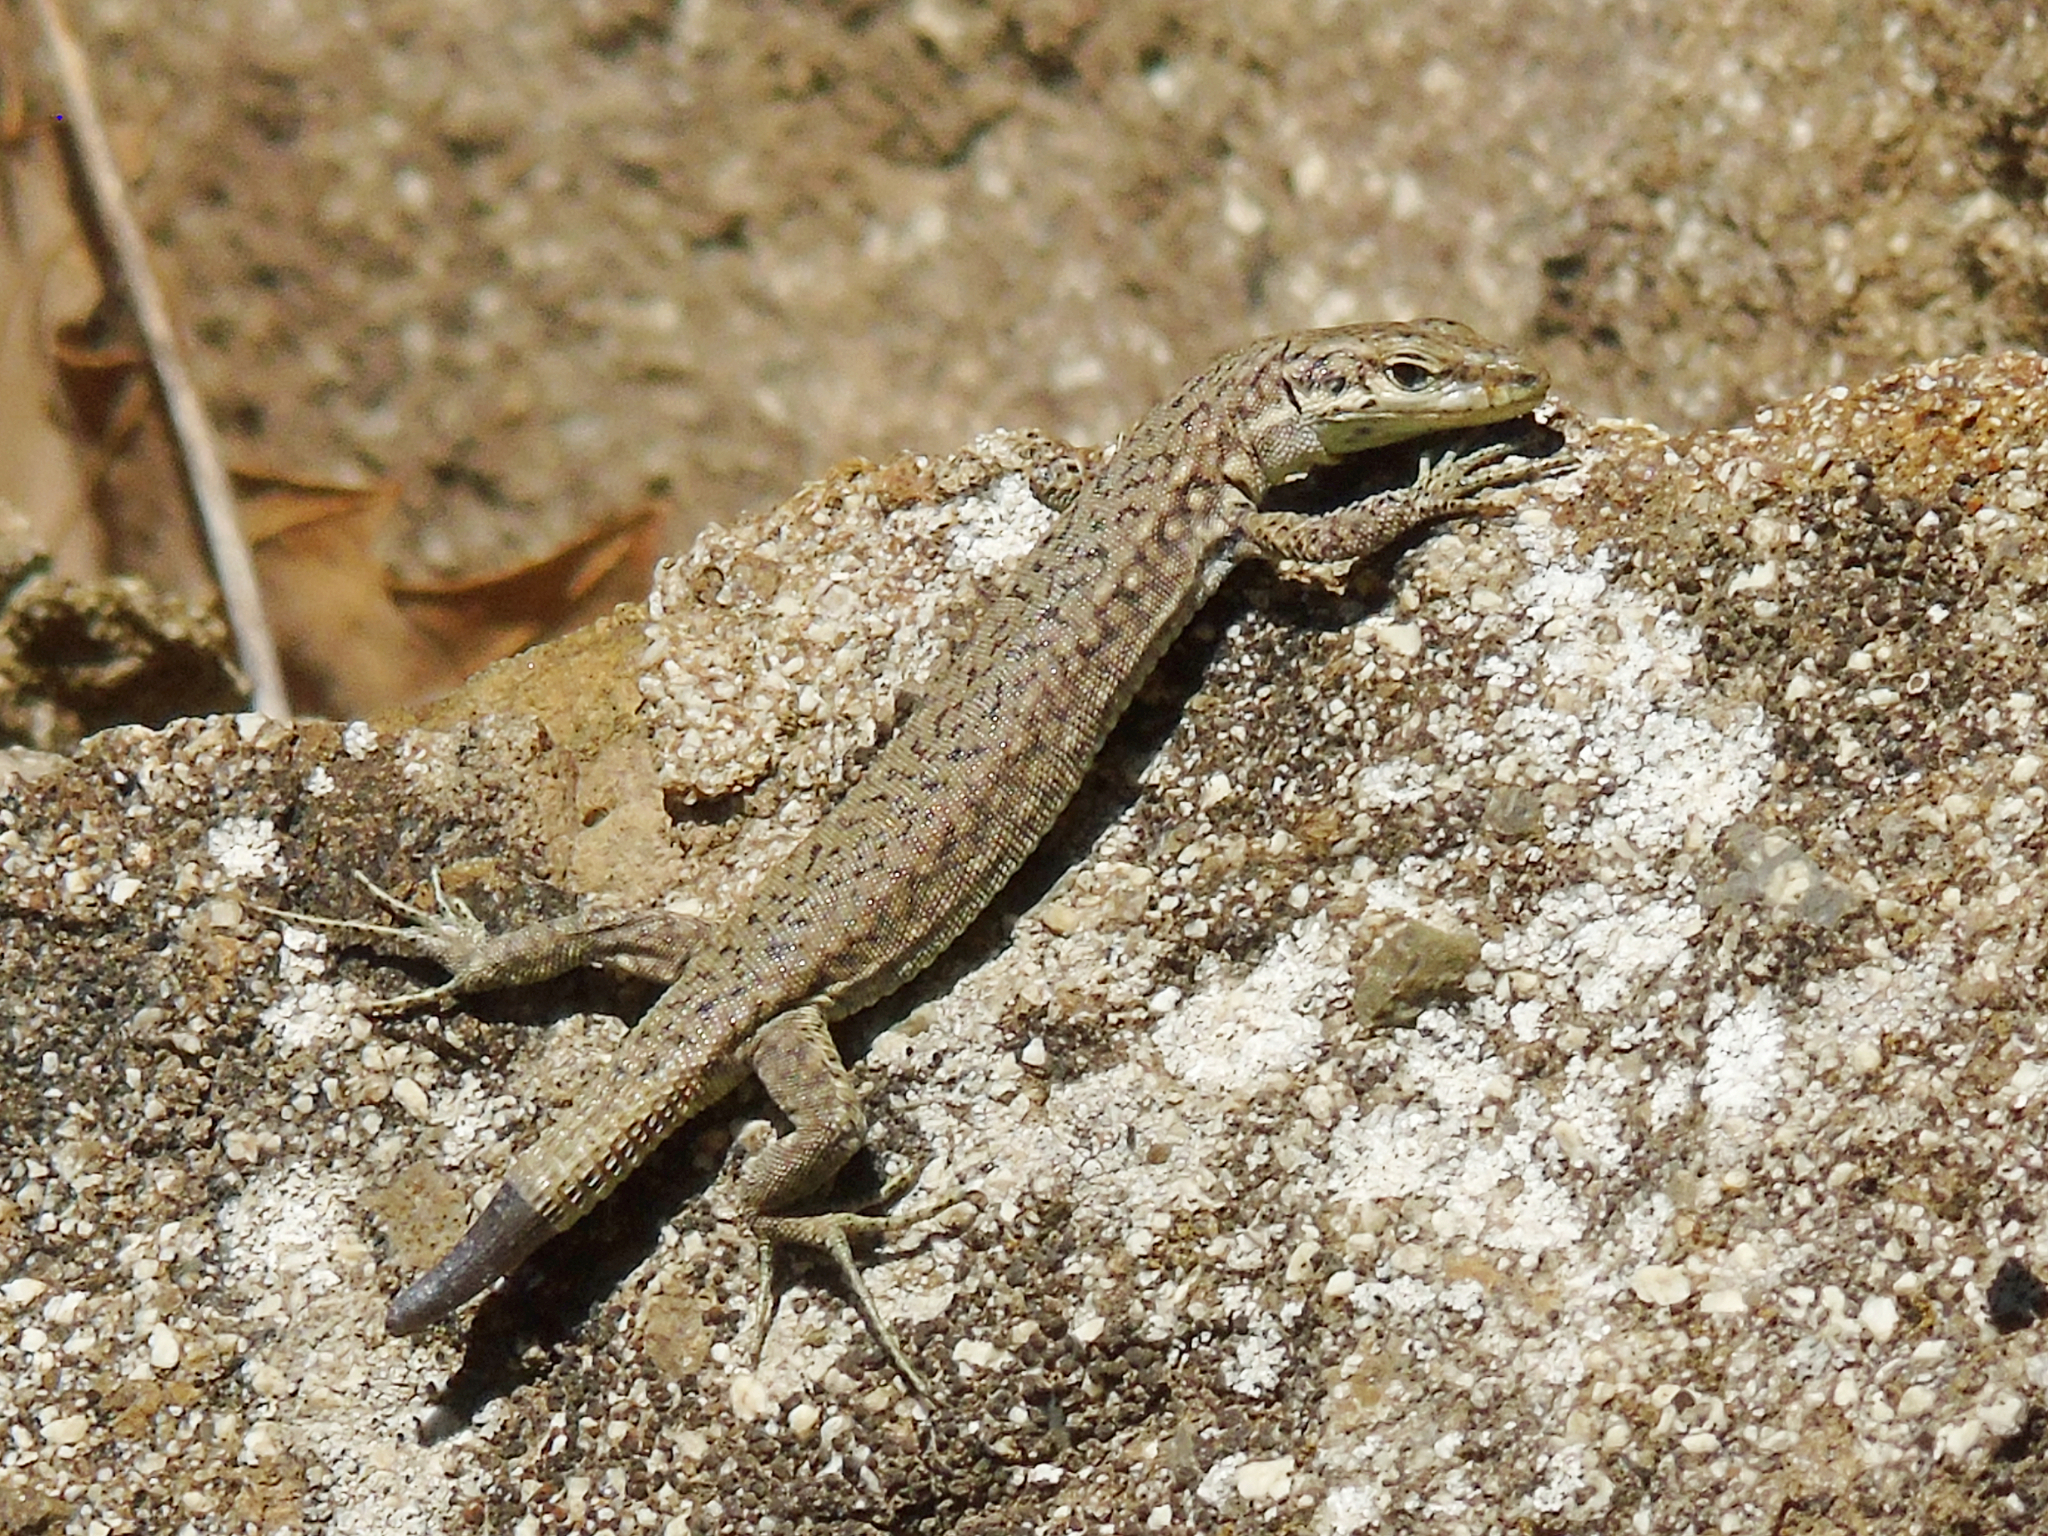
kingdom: Animalia
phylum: Chordata
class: Squamata
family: Lacertidae
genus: Darevskia
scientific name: Darevskia portschinskii
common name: River kura lizard
